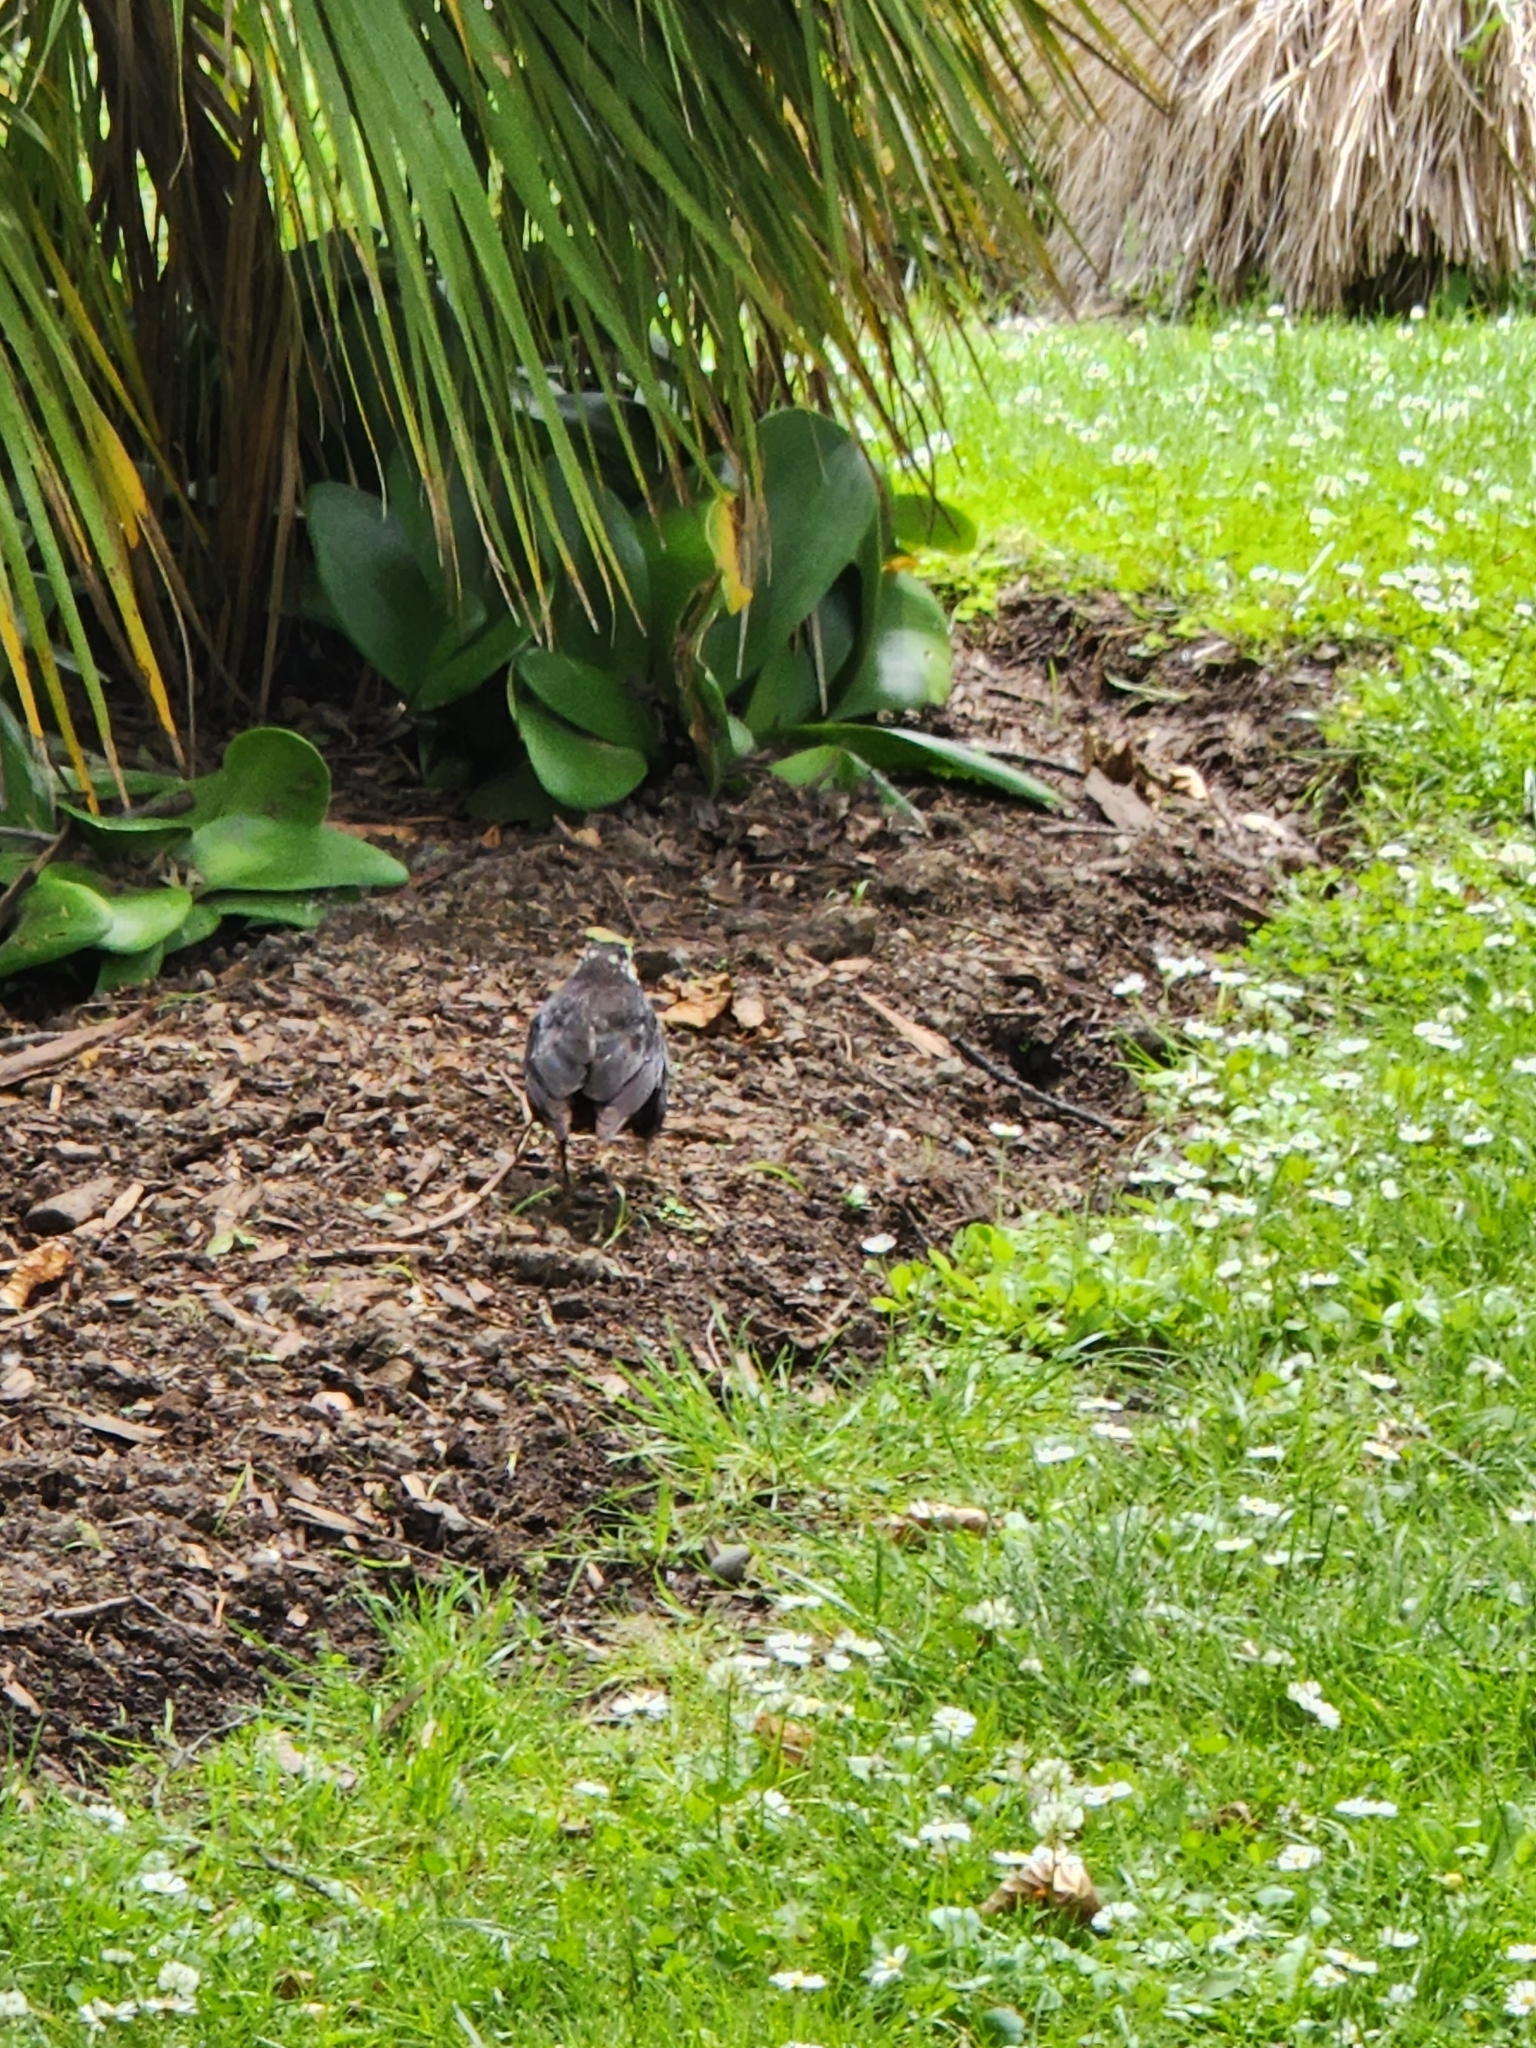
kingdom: Animalia
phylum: Chordata
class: Aves
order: Passeriformes
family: Turdidae
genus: Turdus
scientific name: Turdus merula
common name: Common blackbird
